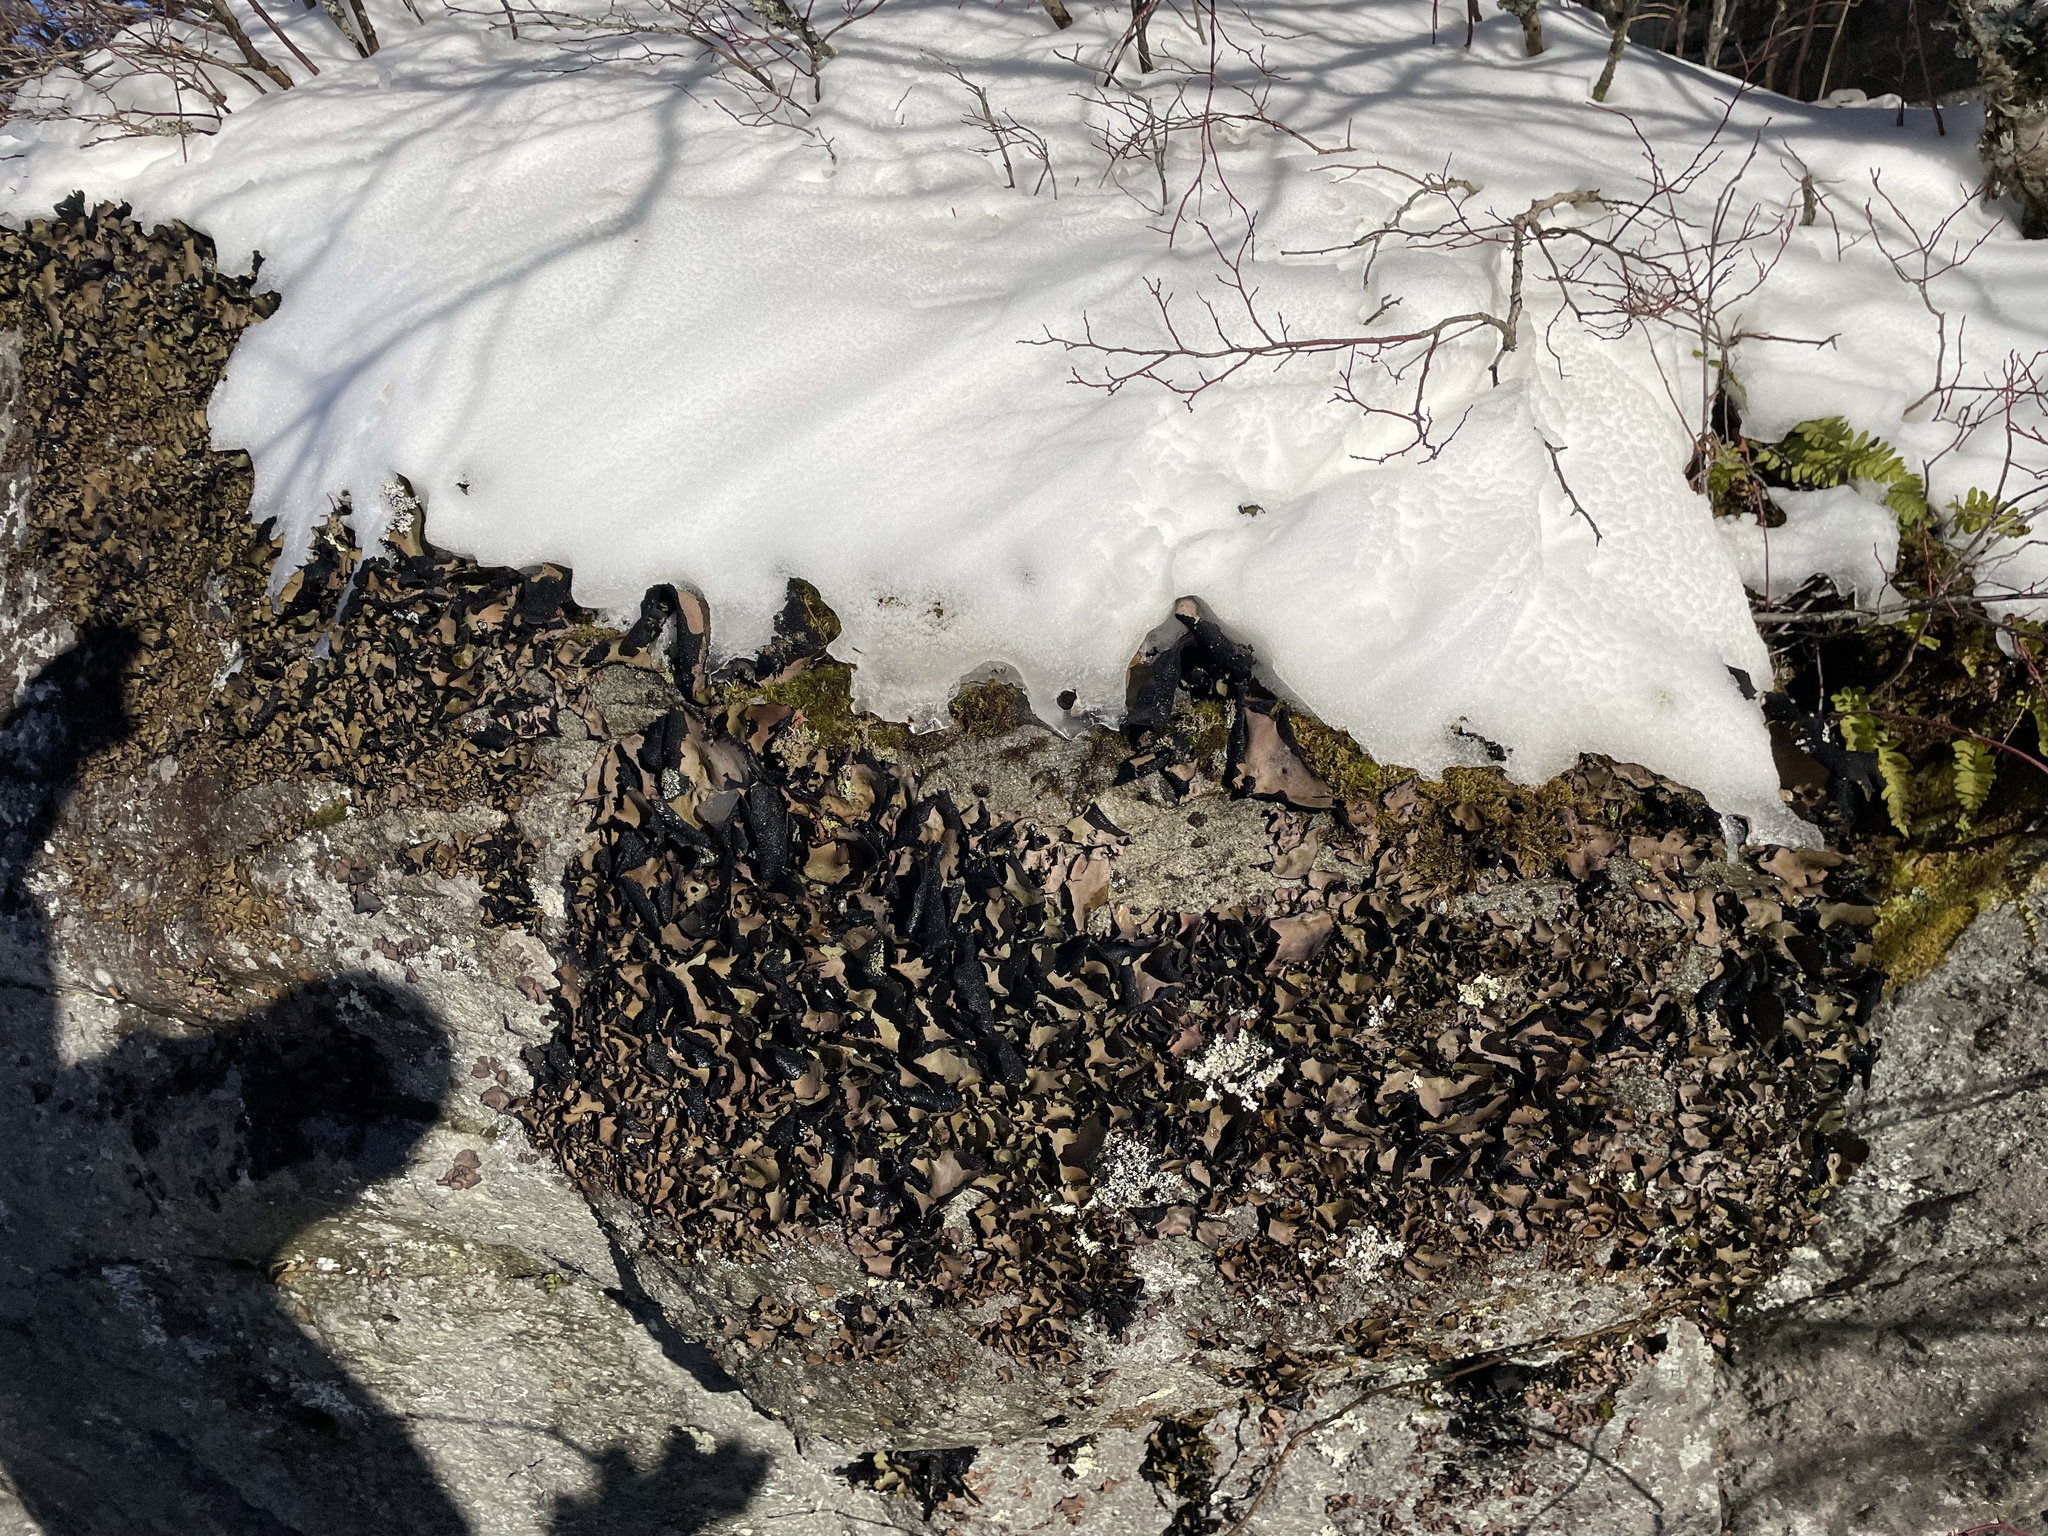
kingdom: Fungi
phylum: Ascomycota
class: Lecanoromycetes
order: Umbilicariales
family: Umbilicariaceae
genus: Umbilicaria
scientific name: Umbilicaria mammulata
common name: Smooth rock tripe
